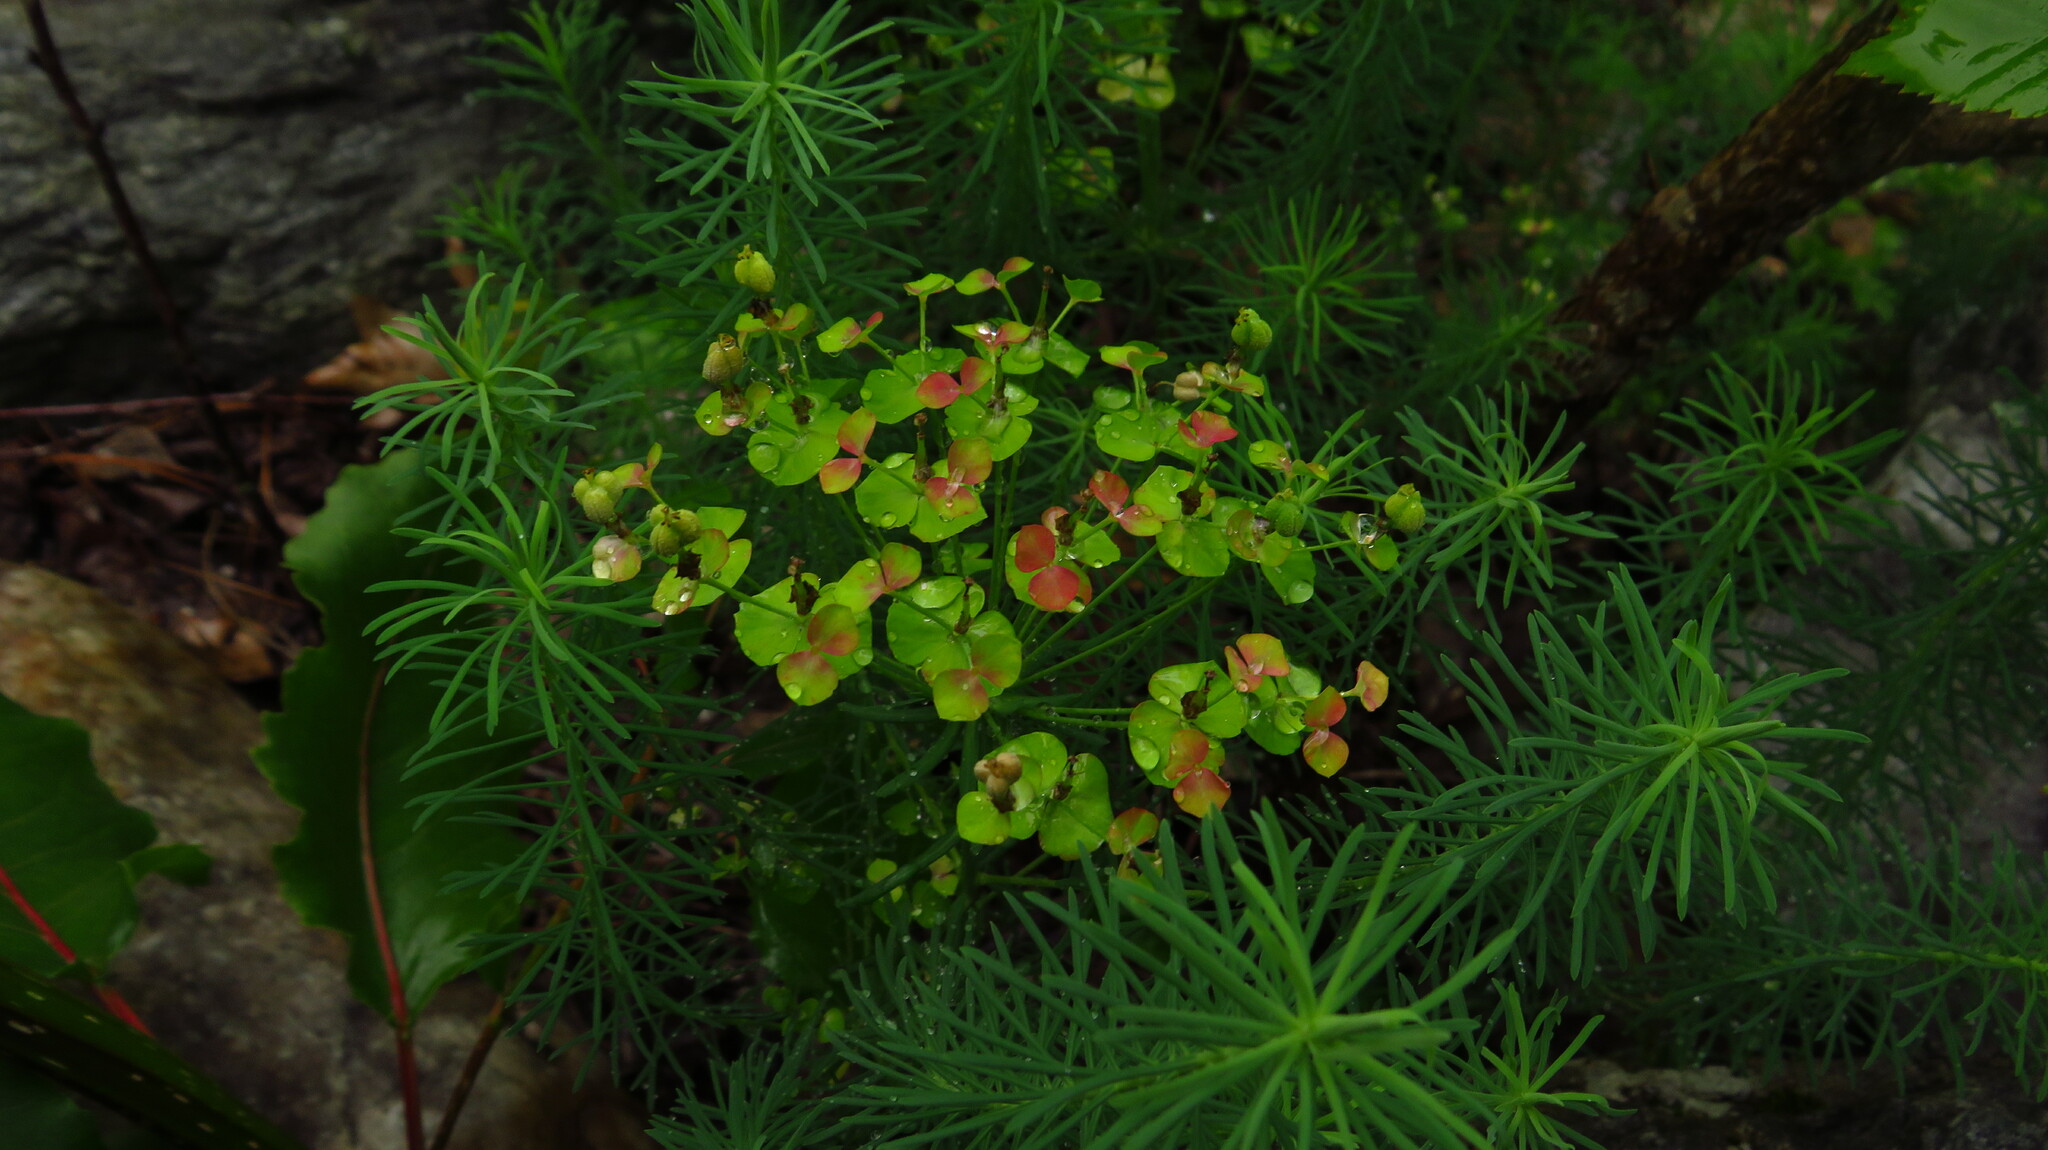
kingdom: Plantae
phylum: Tracheophyta
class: Magnoliopsida
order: Malpighiales
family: Euphorbiaceae
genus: Euphorbia
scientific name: Euphorbia cyparissias
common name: Cypress spurge
